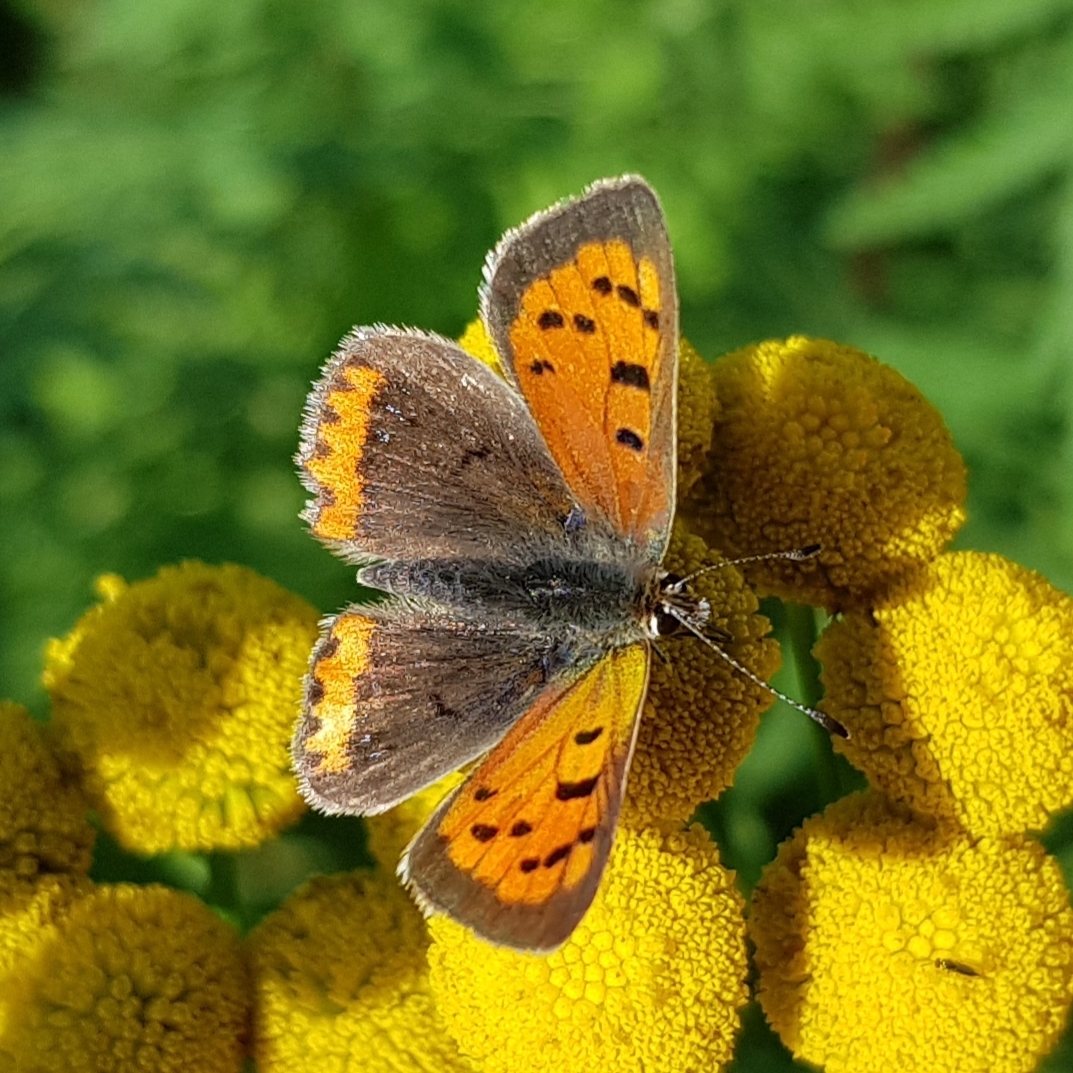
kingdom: Animalia
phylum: Arthropoda
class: Insecta
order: Lepidoptera
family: Lycaenidae
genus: Lycaena
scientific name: Lycaena phlaeas
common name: Small copper
